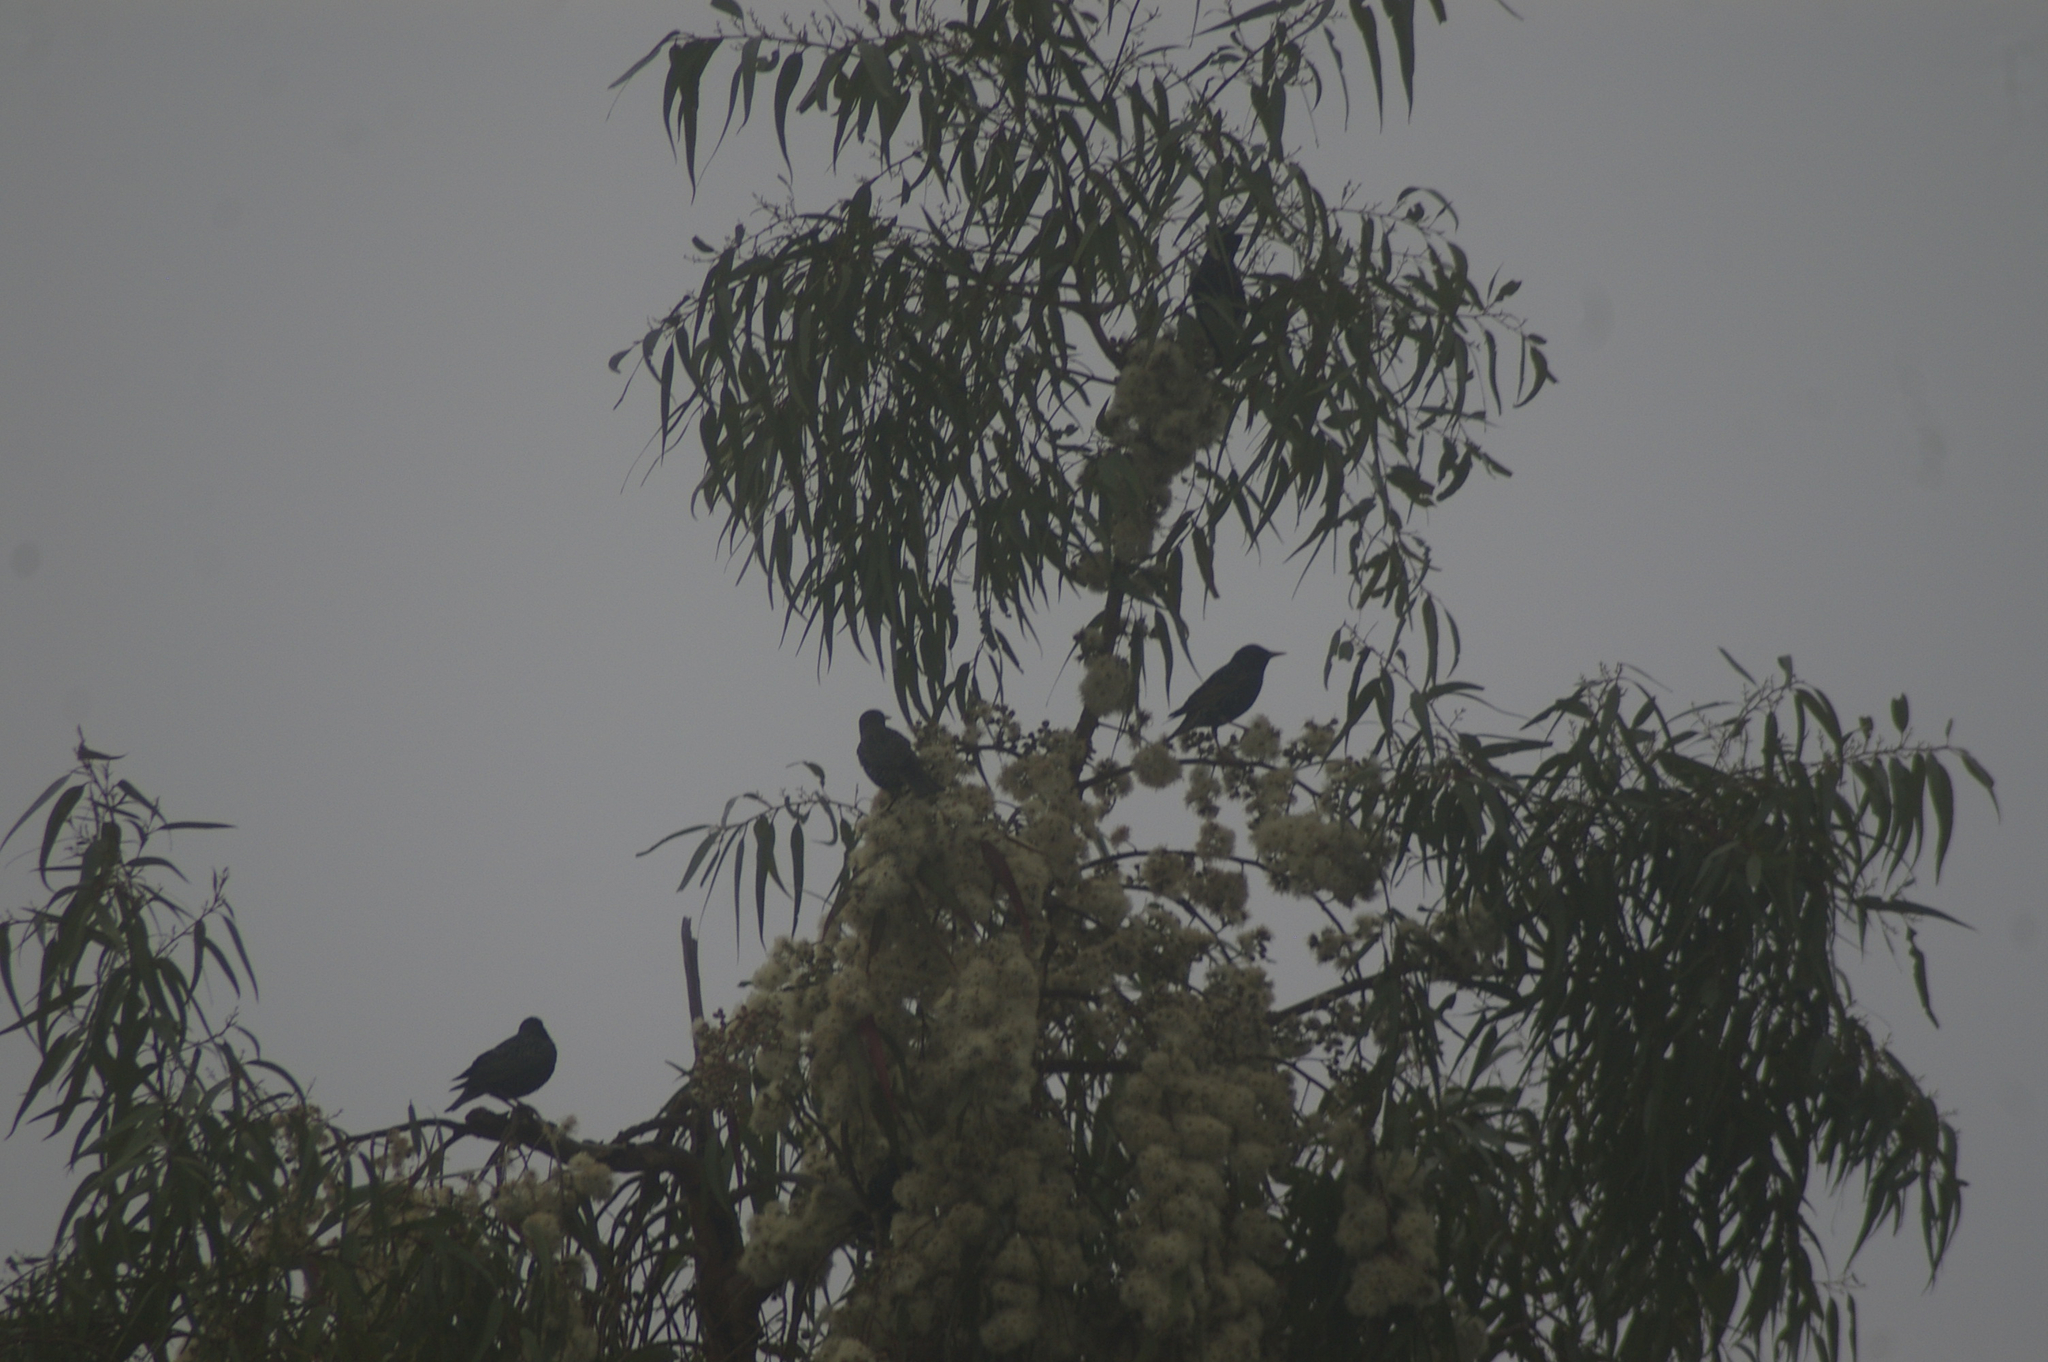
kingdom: Animalia
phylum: Chordata
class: Aves
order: Passeriformes
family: Sturnidae
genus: Sturnus
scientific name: Sturnus vulgaris
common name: Common starling
